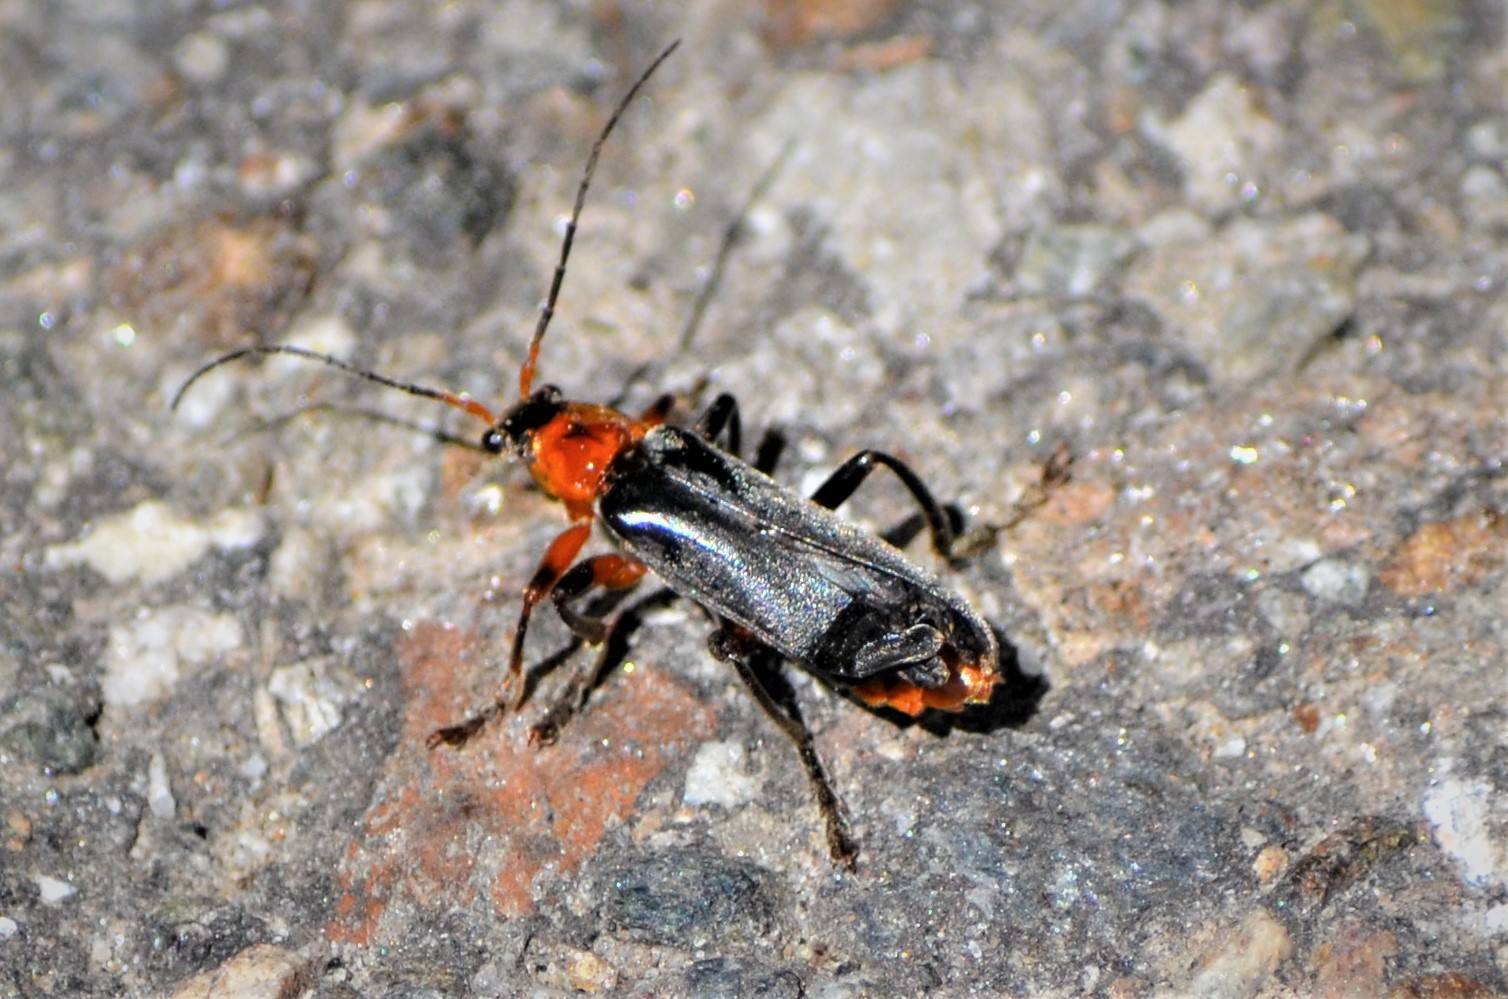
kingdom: Animalia
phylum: Arthropoda
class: Insecta
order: Coleoptera
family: Cantharidae
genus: Cantharis
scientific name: Cantharis rustica
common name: Soldier beetle
